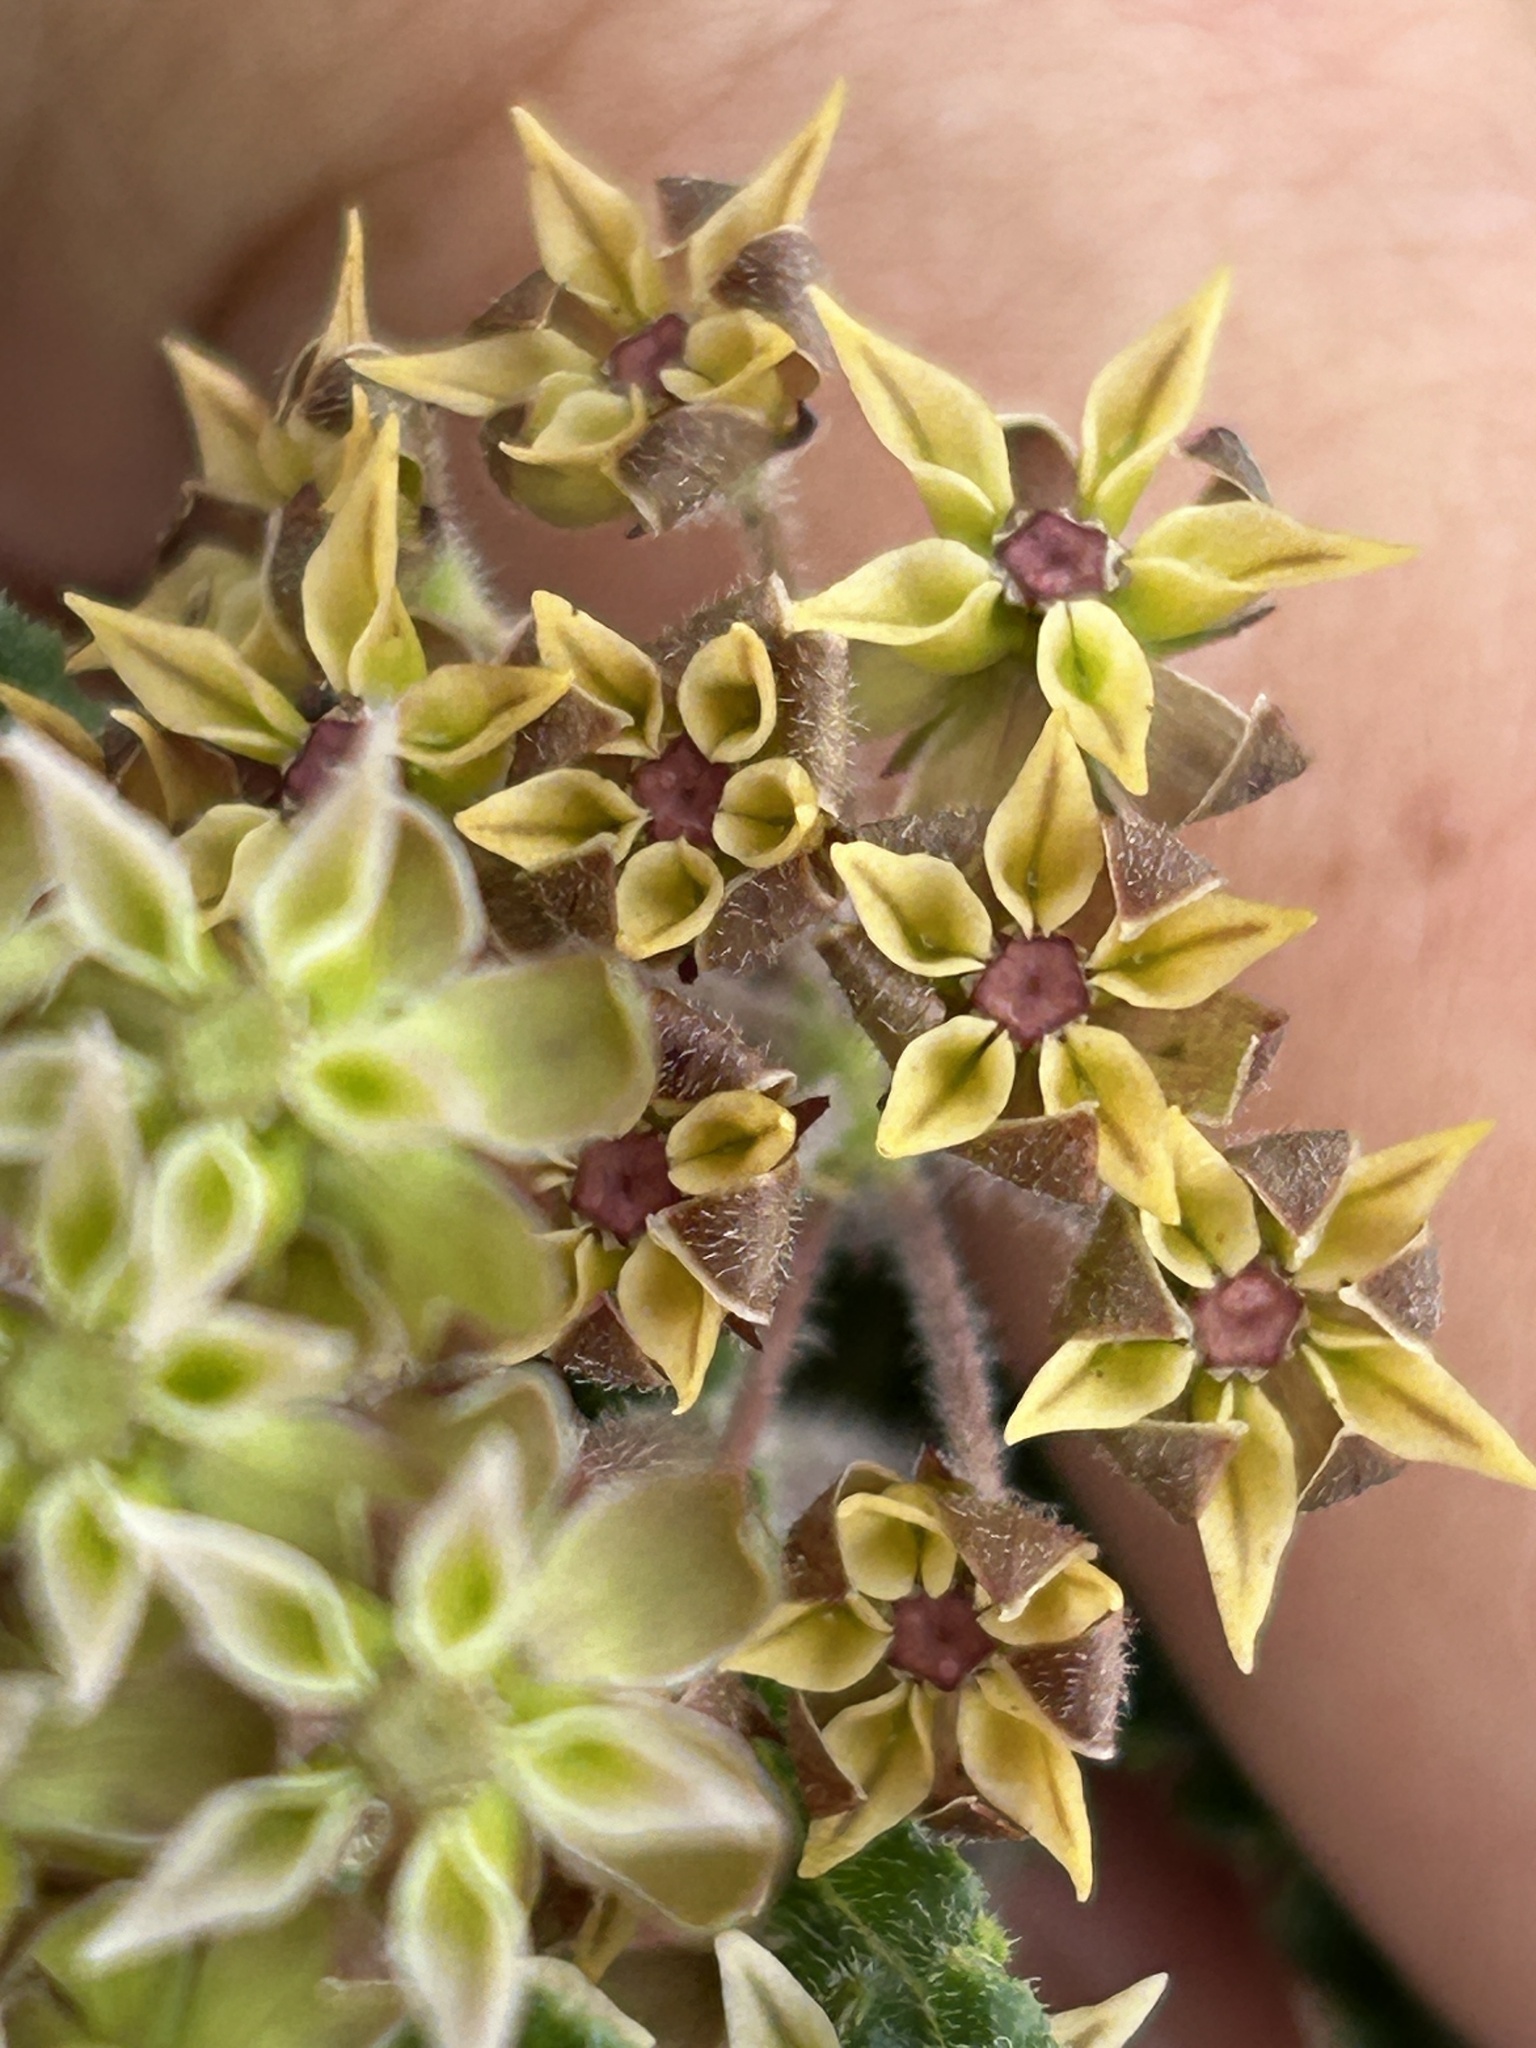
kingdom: Plantae
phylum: Tracheophyta
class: Magnoliopsida
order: Gentianales
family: Apocynaceae
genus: Asclepias
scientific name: Asclepias crispa
